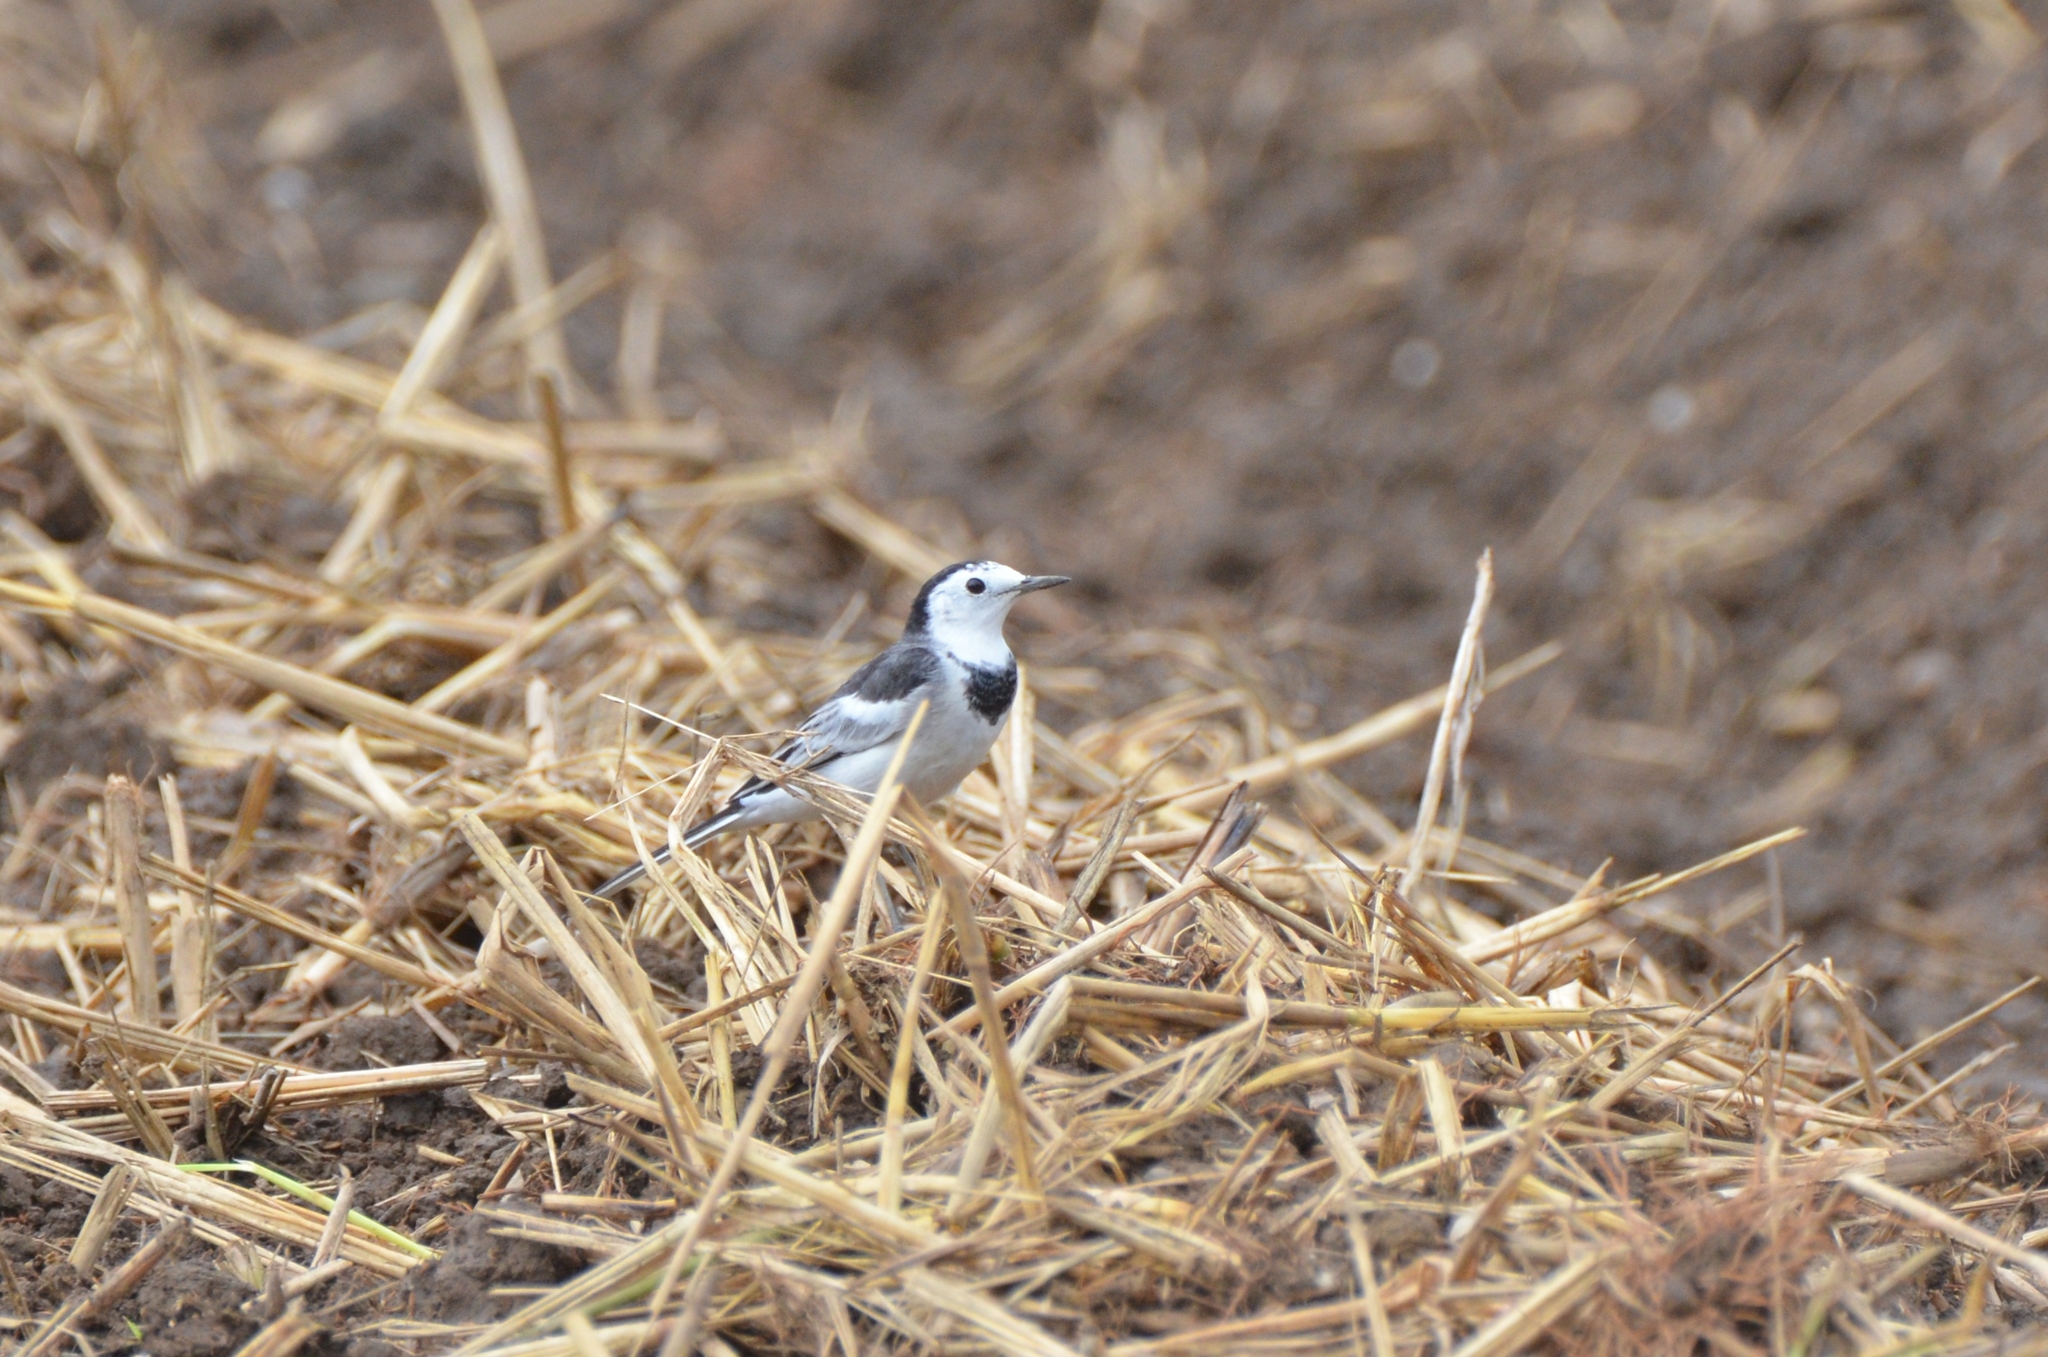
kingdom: Animalia
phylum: Chordata
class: Aves
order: Passeriformes
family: Motacillidae
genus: Motacilla
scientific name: Motacilla alba
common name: White wagtail
